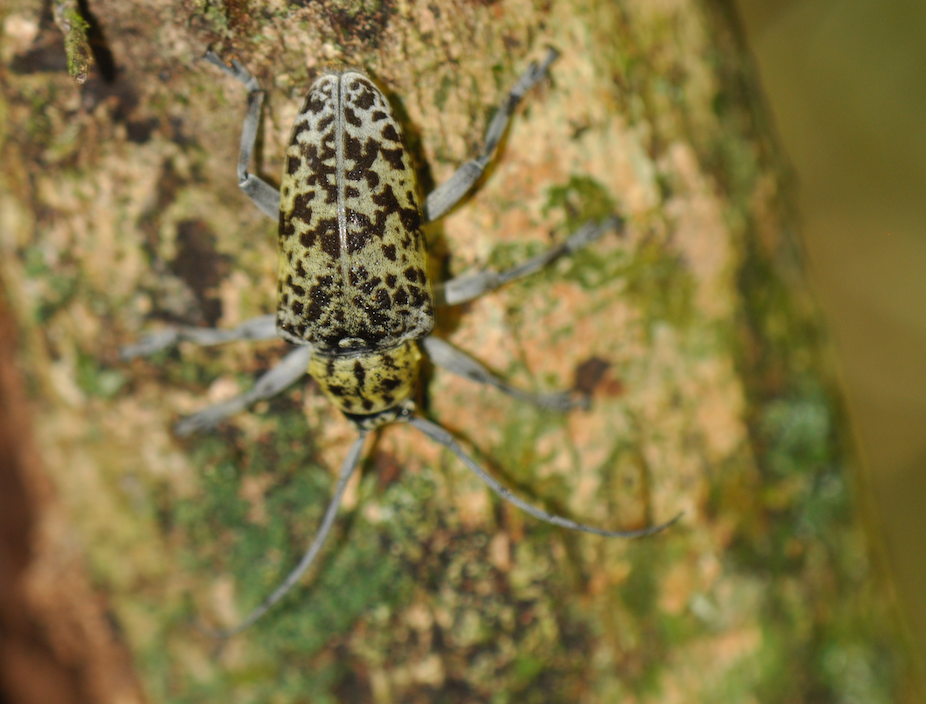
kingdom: Animalia
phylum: Arthropoda
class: Insecta
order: Coleoptera
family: Cerambycidae
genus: Frea
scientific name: Frea sparsa
